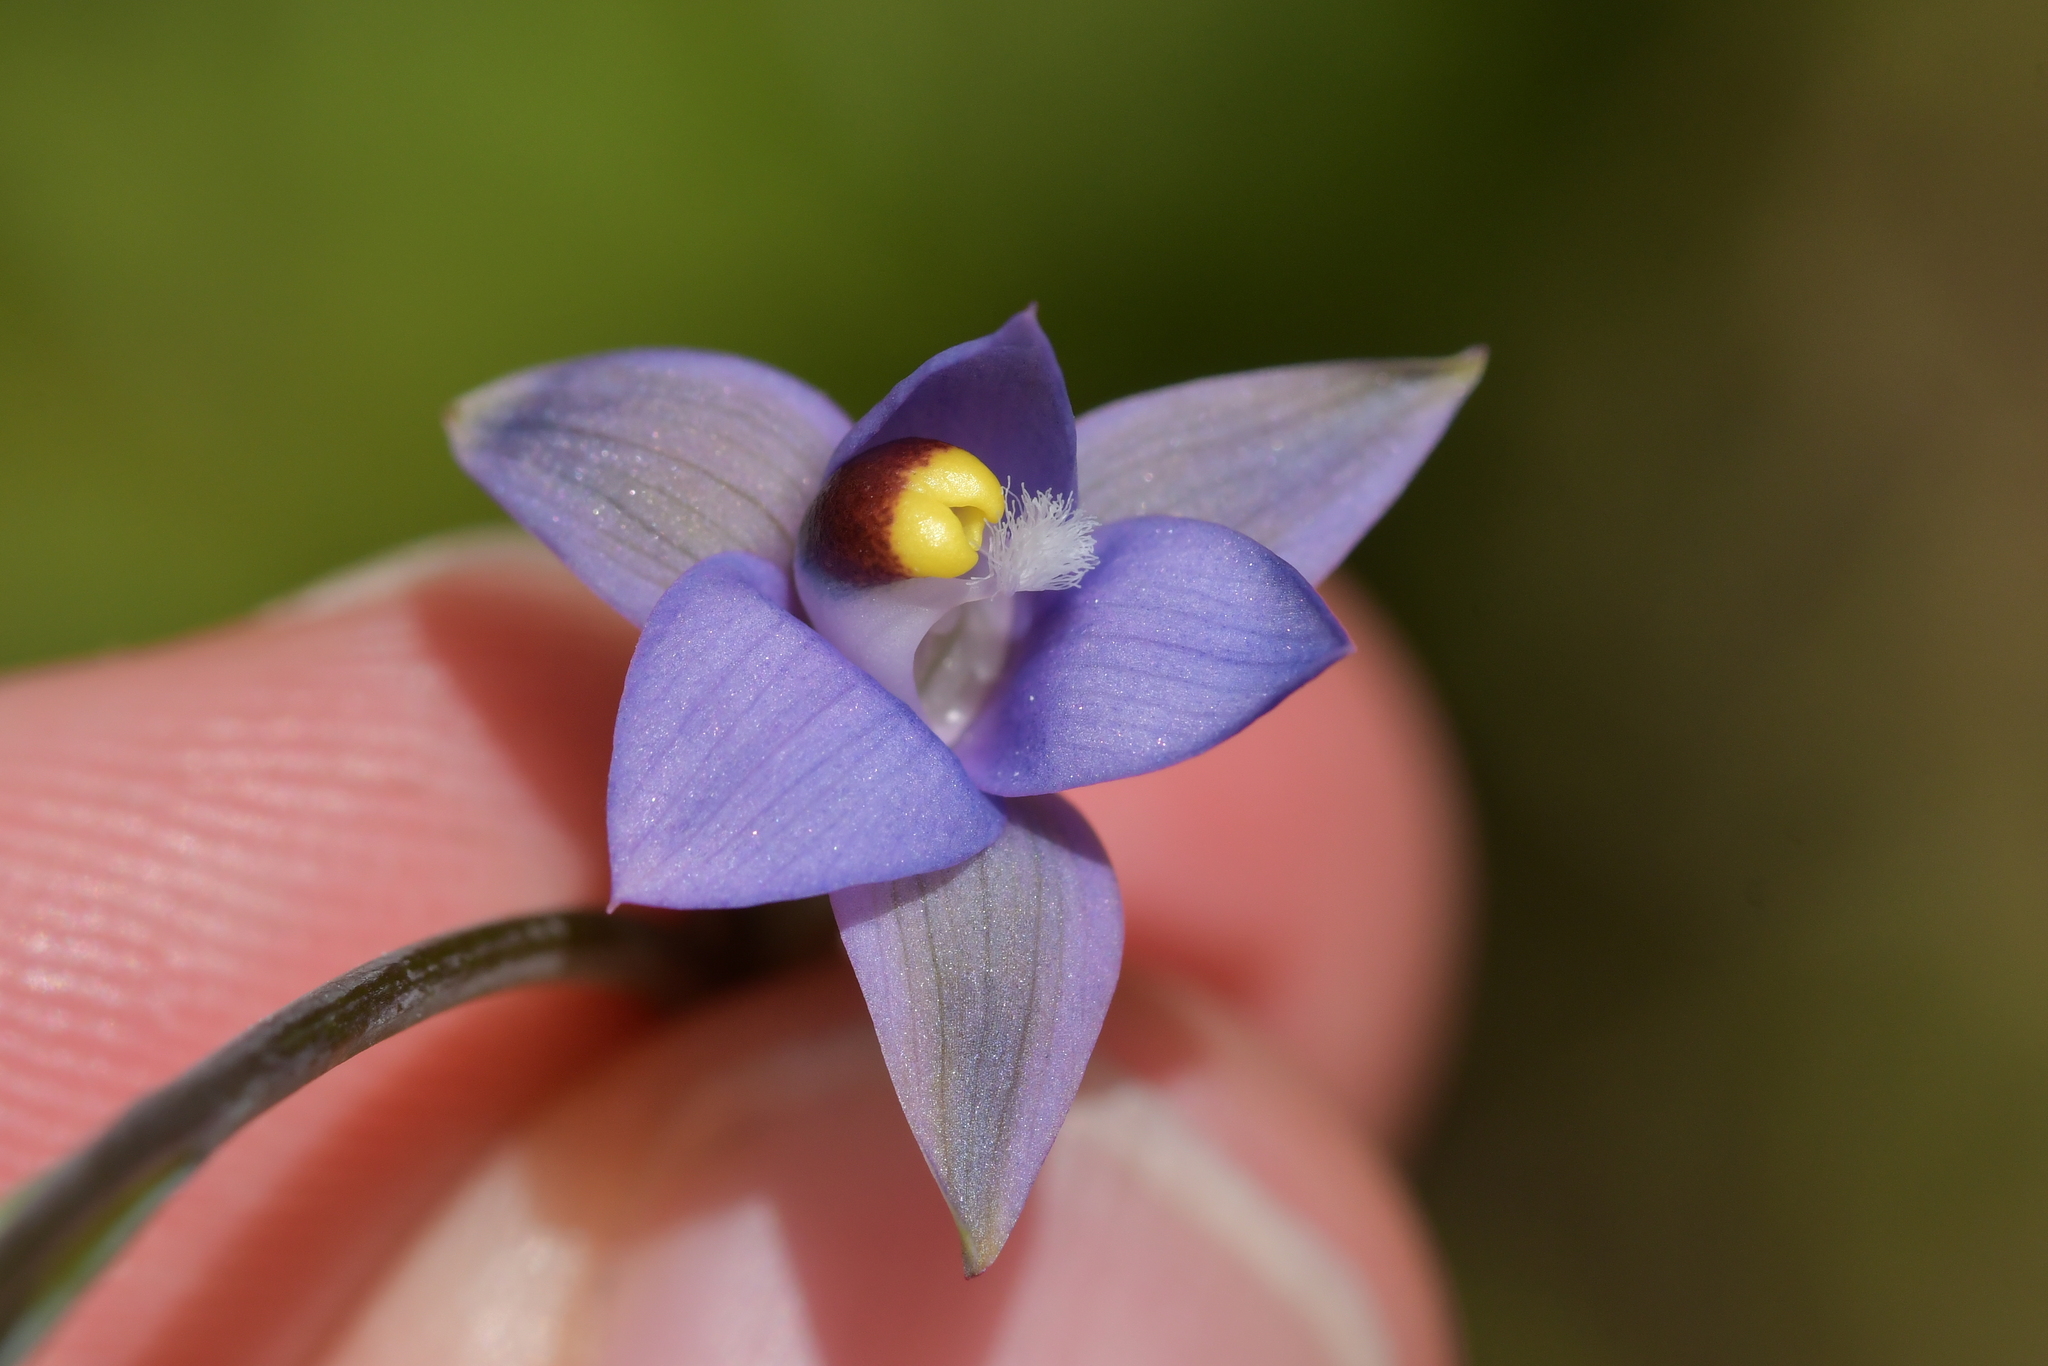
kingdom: Plantae
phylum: Tracheophyta
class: Liliopsida
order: Asparagales
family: Orchidaceae
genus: Thelymitra
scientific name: Thelymitra pauciflora
